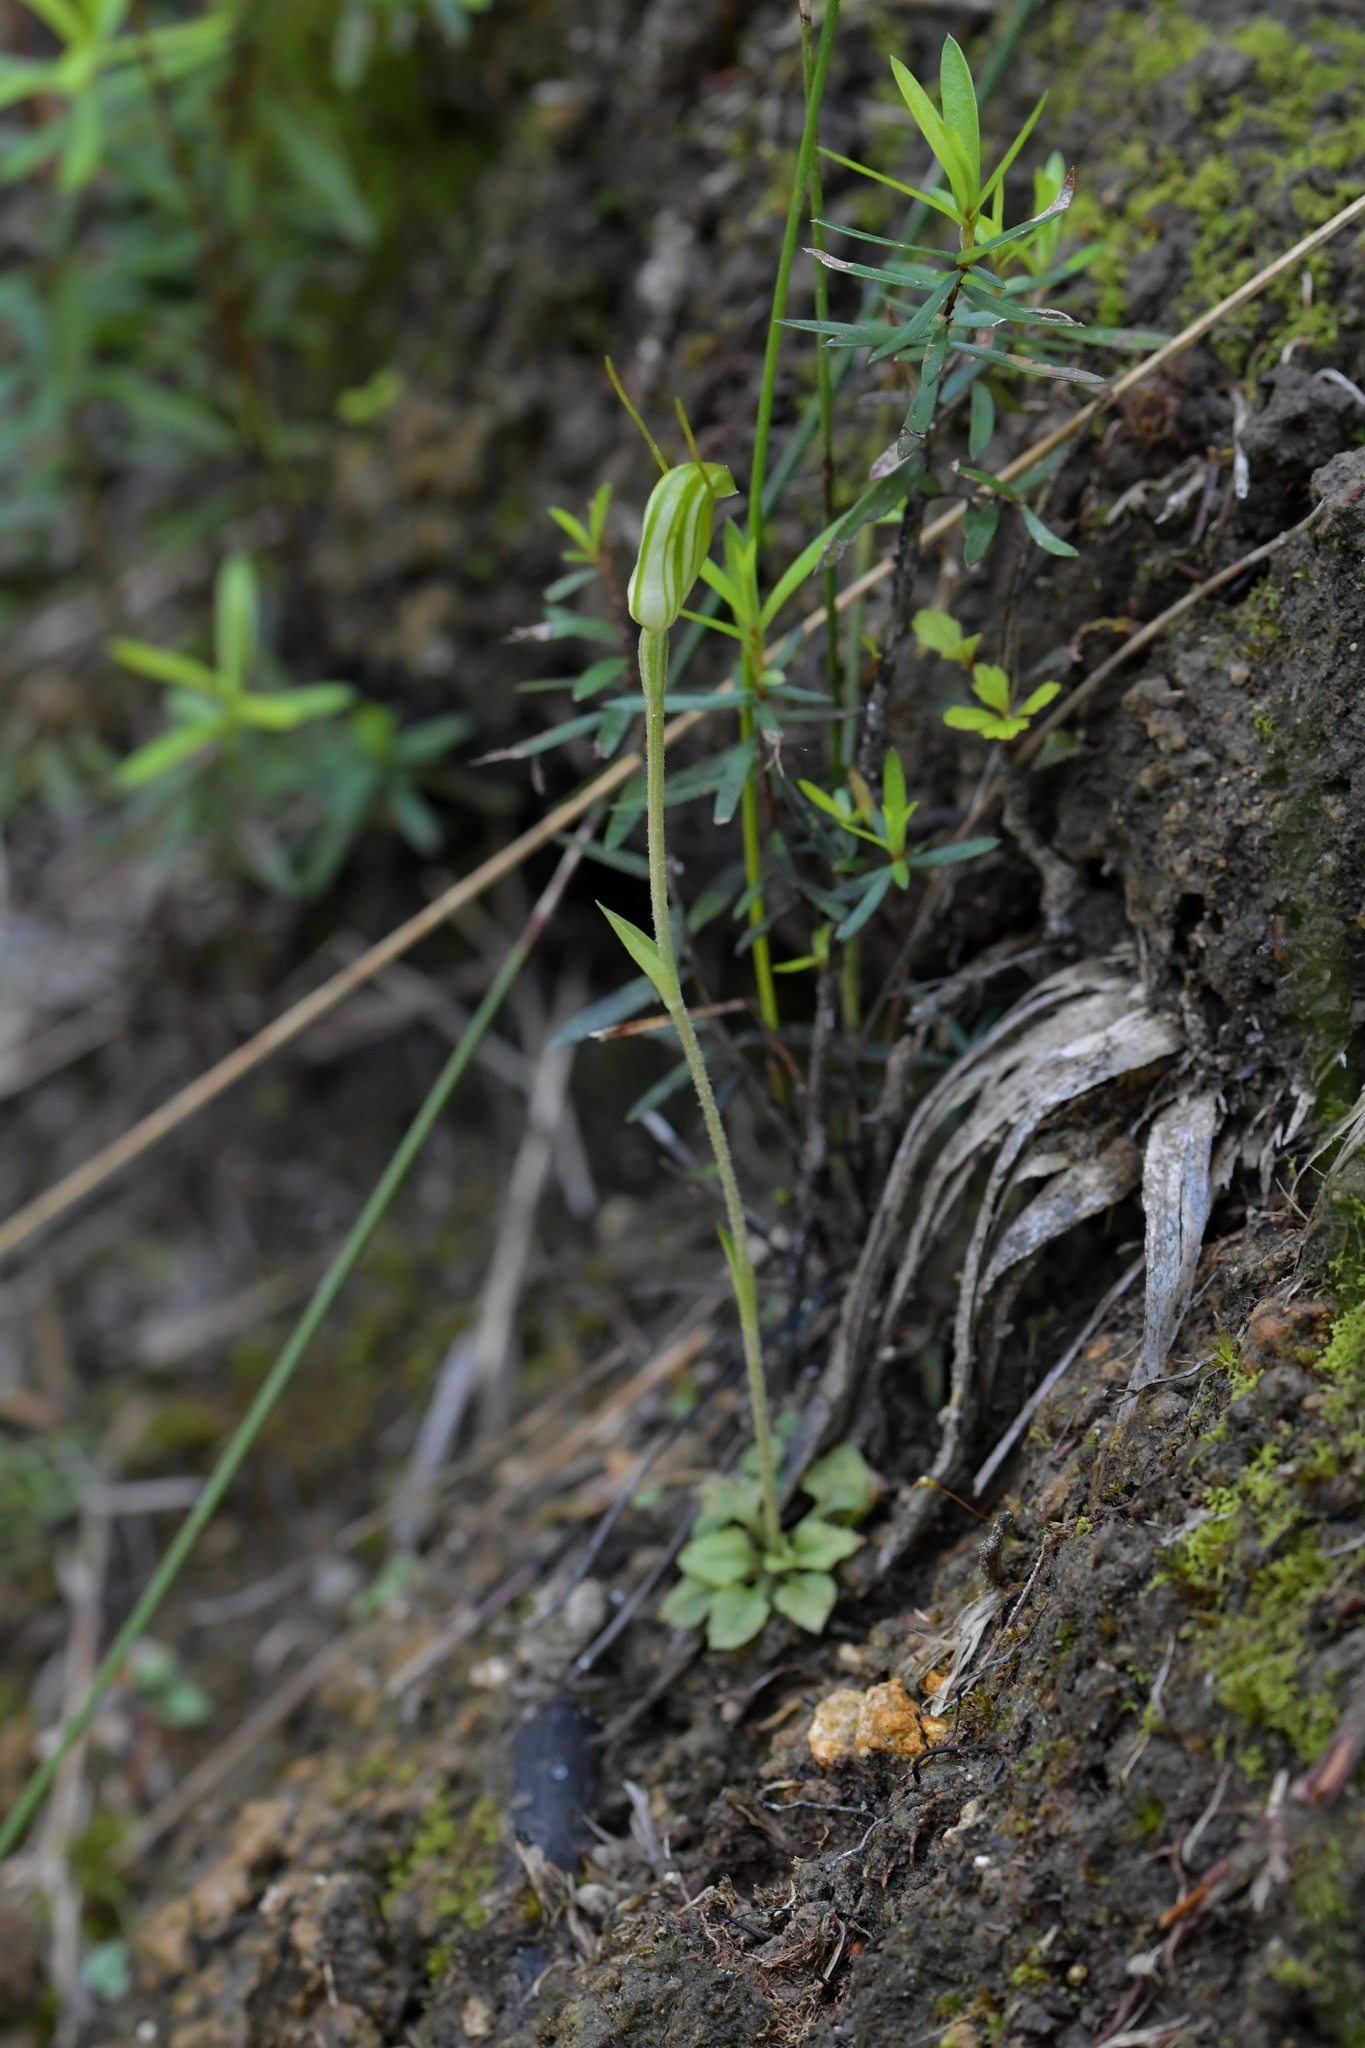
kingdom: Plantae
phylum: Tracheophyta
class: Liliopsida
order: Asparagales
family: Orchidaceae
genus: Pterostylis
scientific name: Pterostylis puberula
